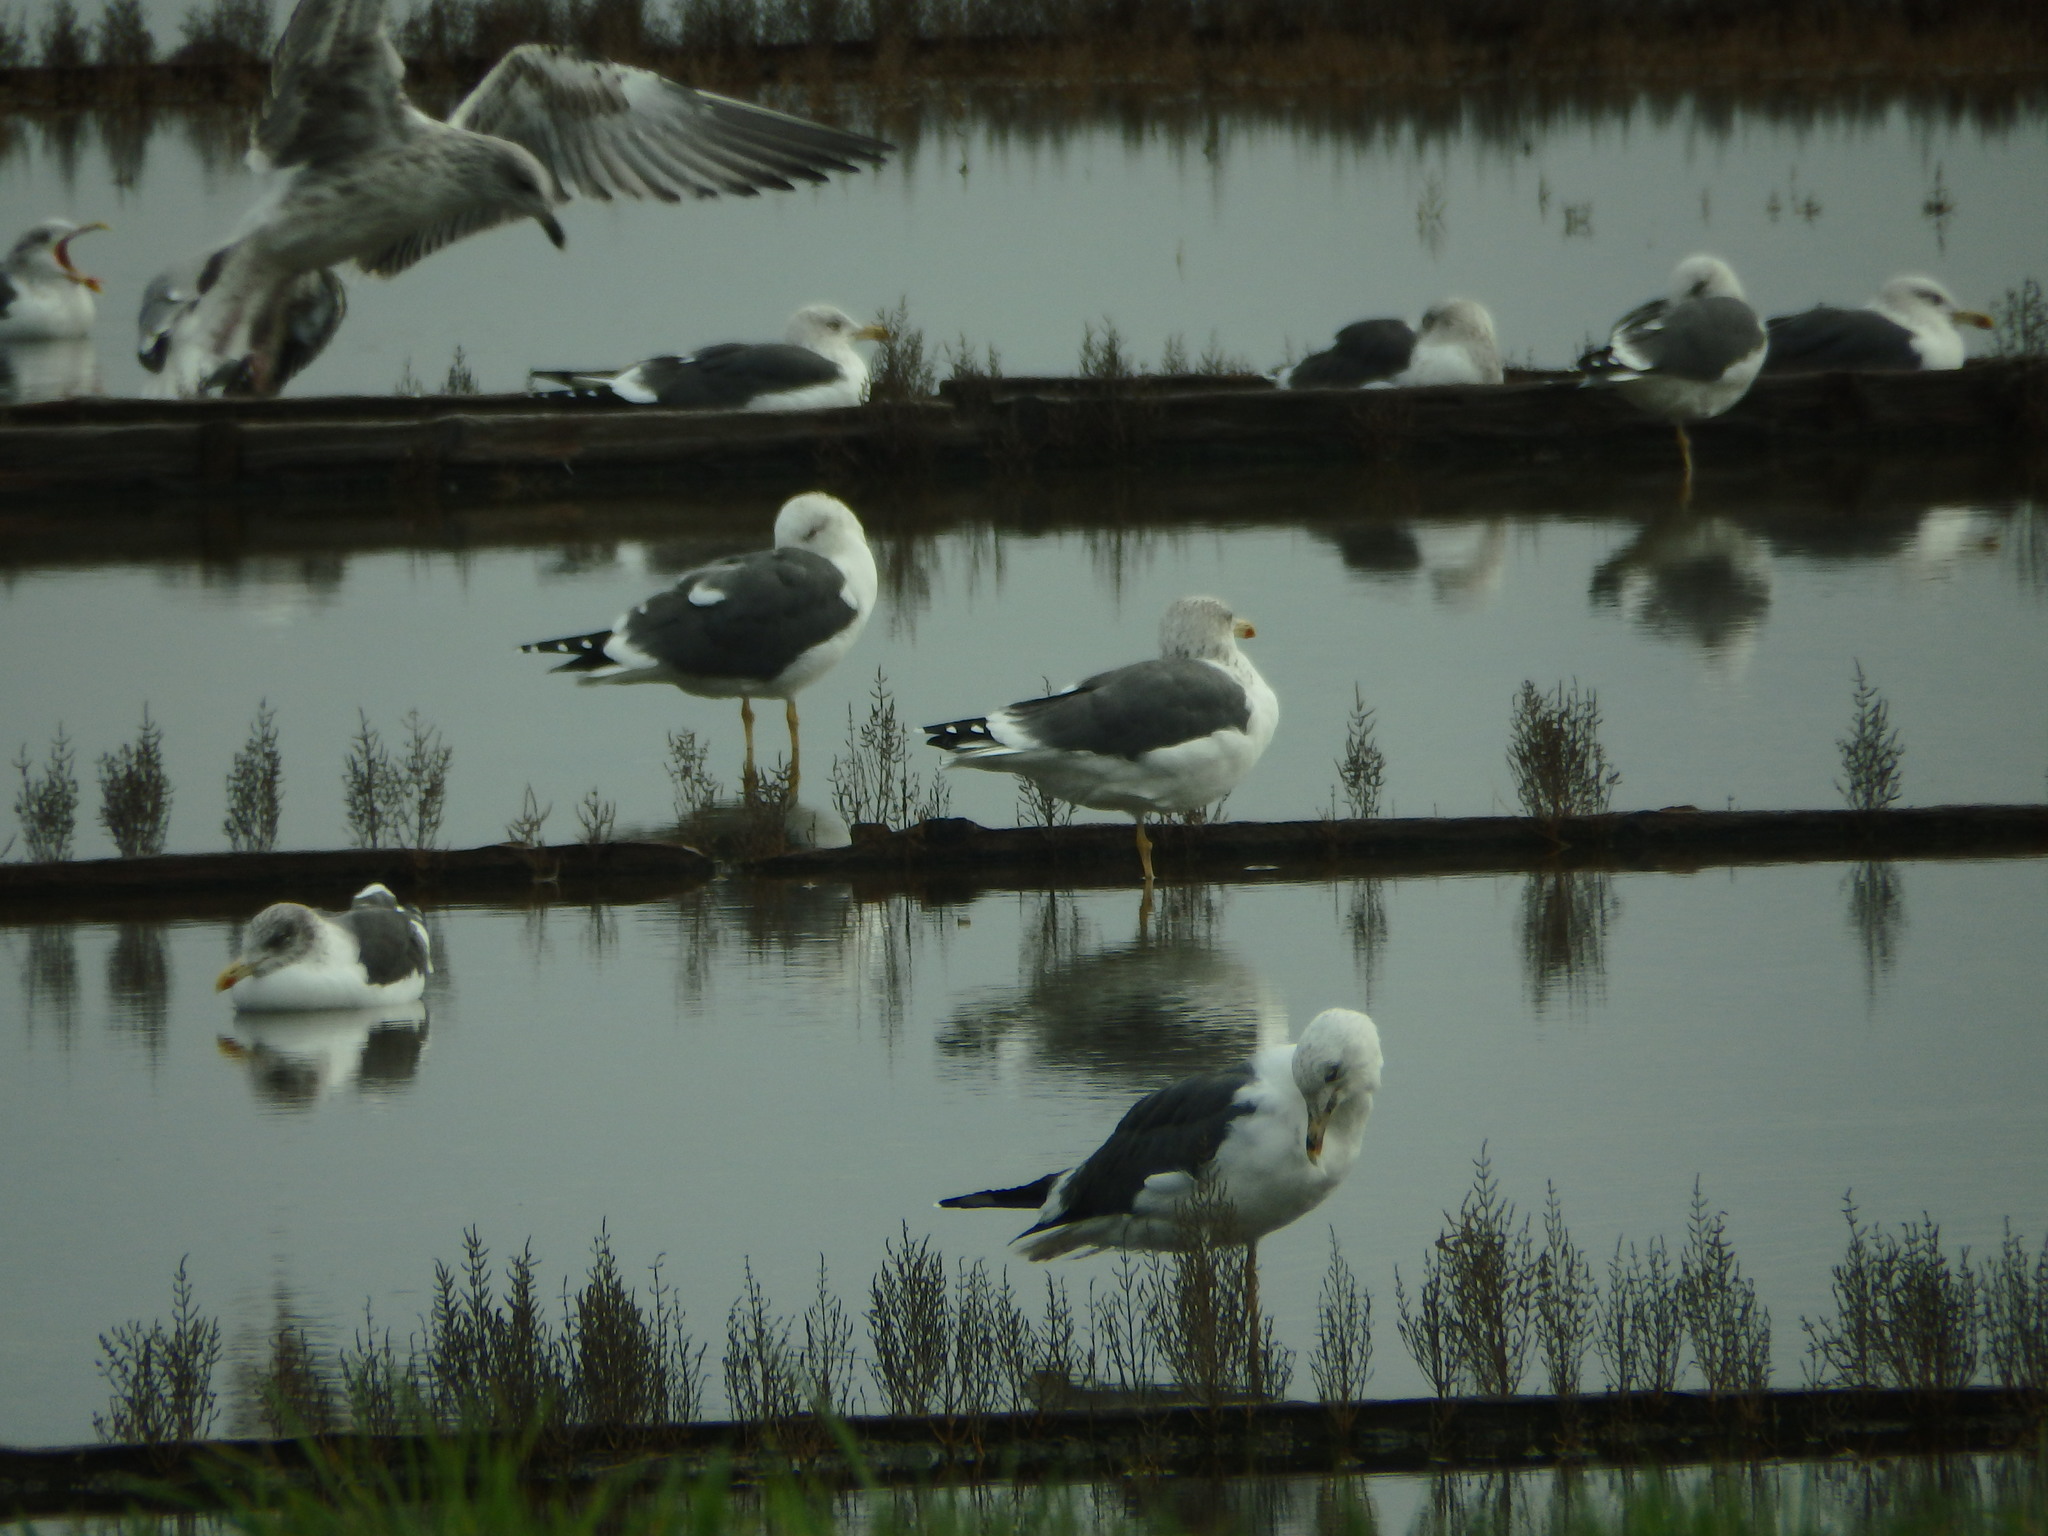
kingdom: Animalia
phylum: Chordata
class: Aves
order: Charadriiformes
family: Laridae
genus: Larus
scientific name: Larus fuscus
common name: Lesser black-backed gull
